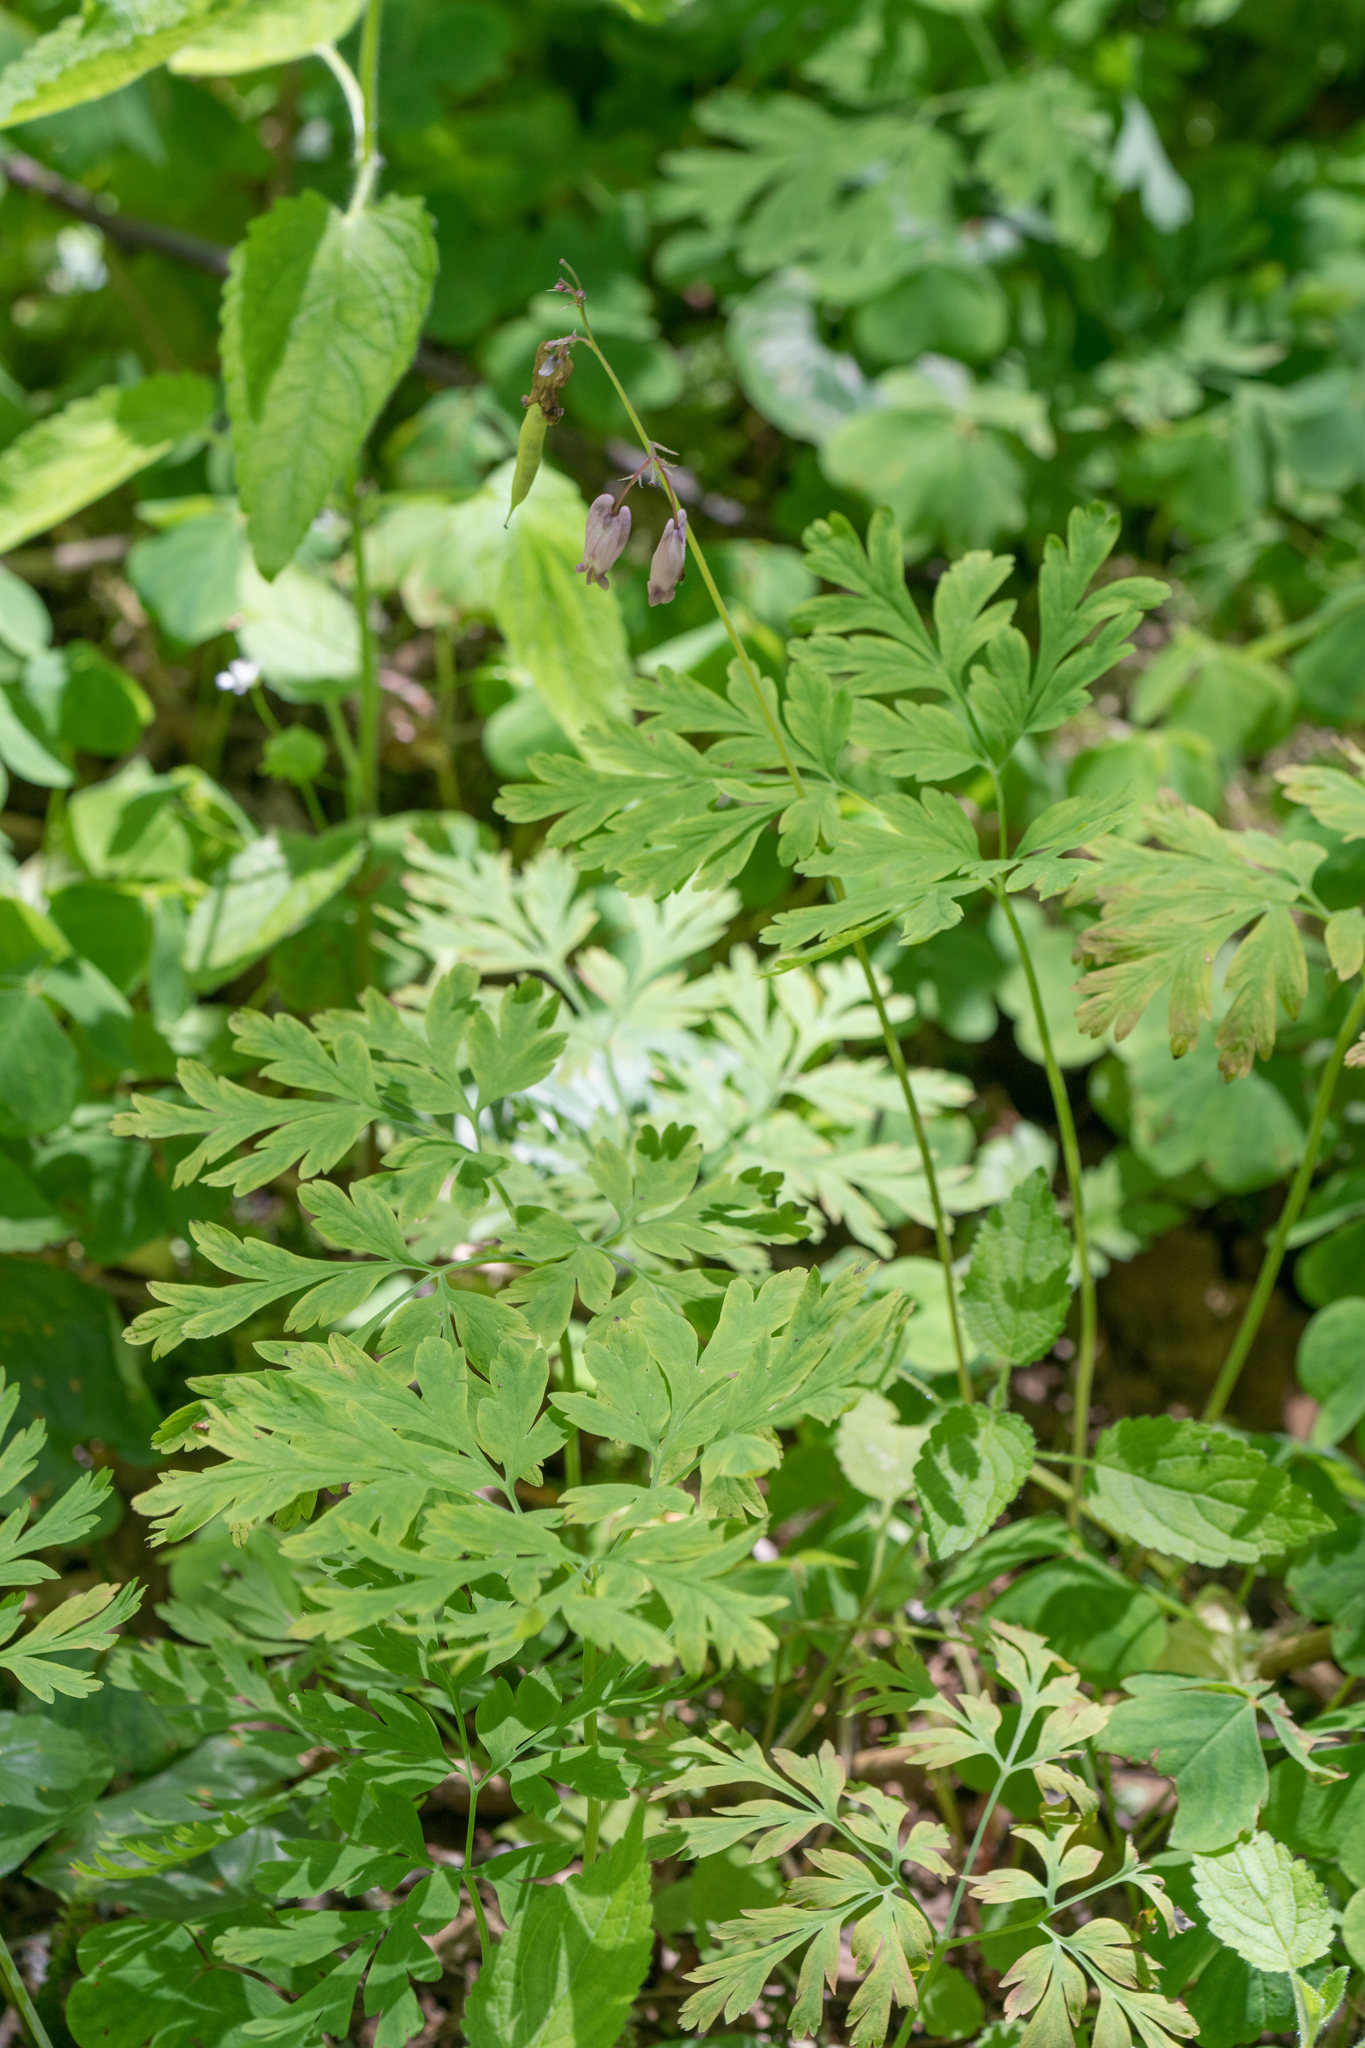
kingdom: Plantae
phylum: Tracheophyta
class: Magnoliopsida
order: Ranunculales
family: Papaveraceae
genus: Dicentra
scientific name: Dicentra formosa
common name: Bleeding-heart
